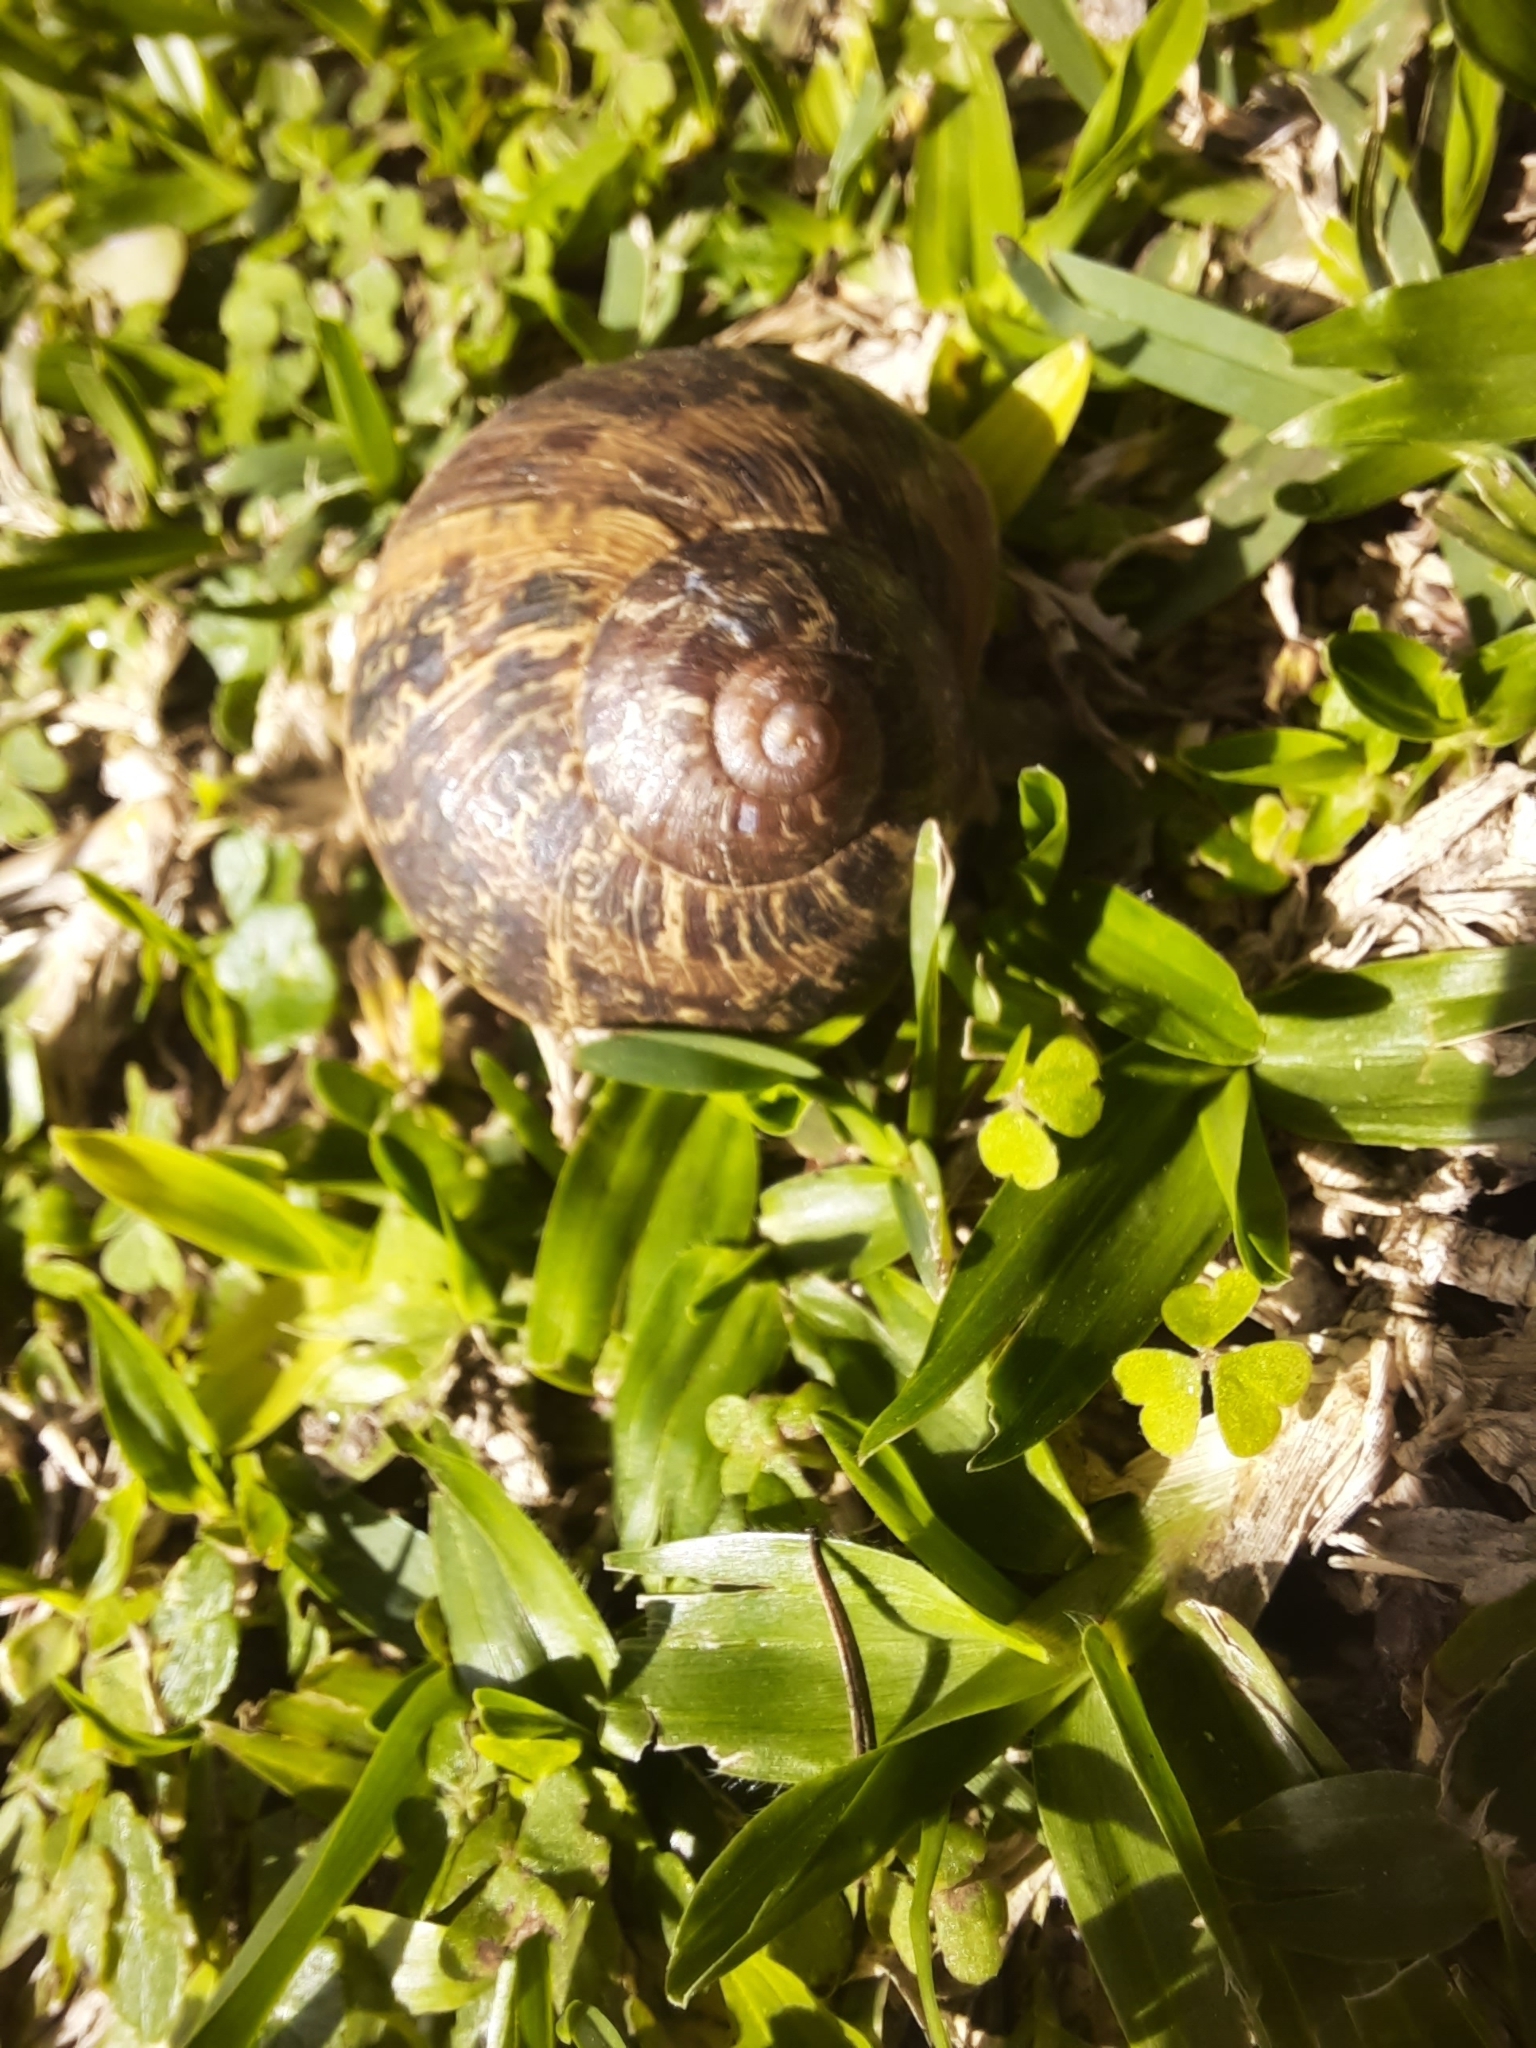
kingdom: Animalia
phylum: Mollusca
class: Gastropoda
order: Stylommatophora
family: Helicidae
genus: Cornu
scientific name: Cornu aspersum
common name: Brown garden snail
